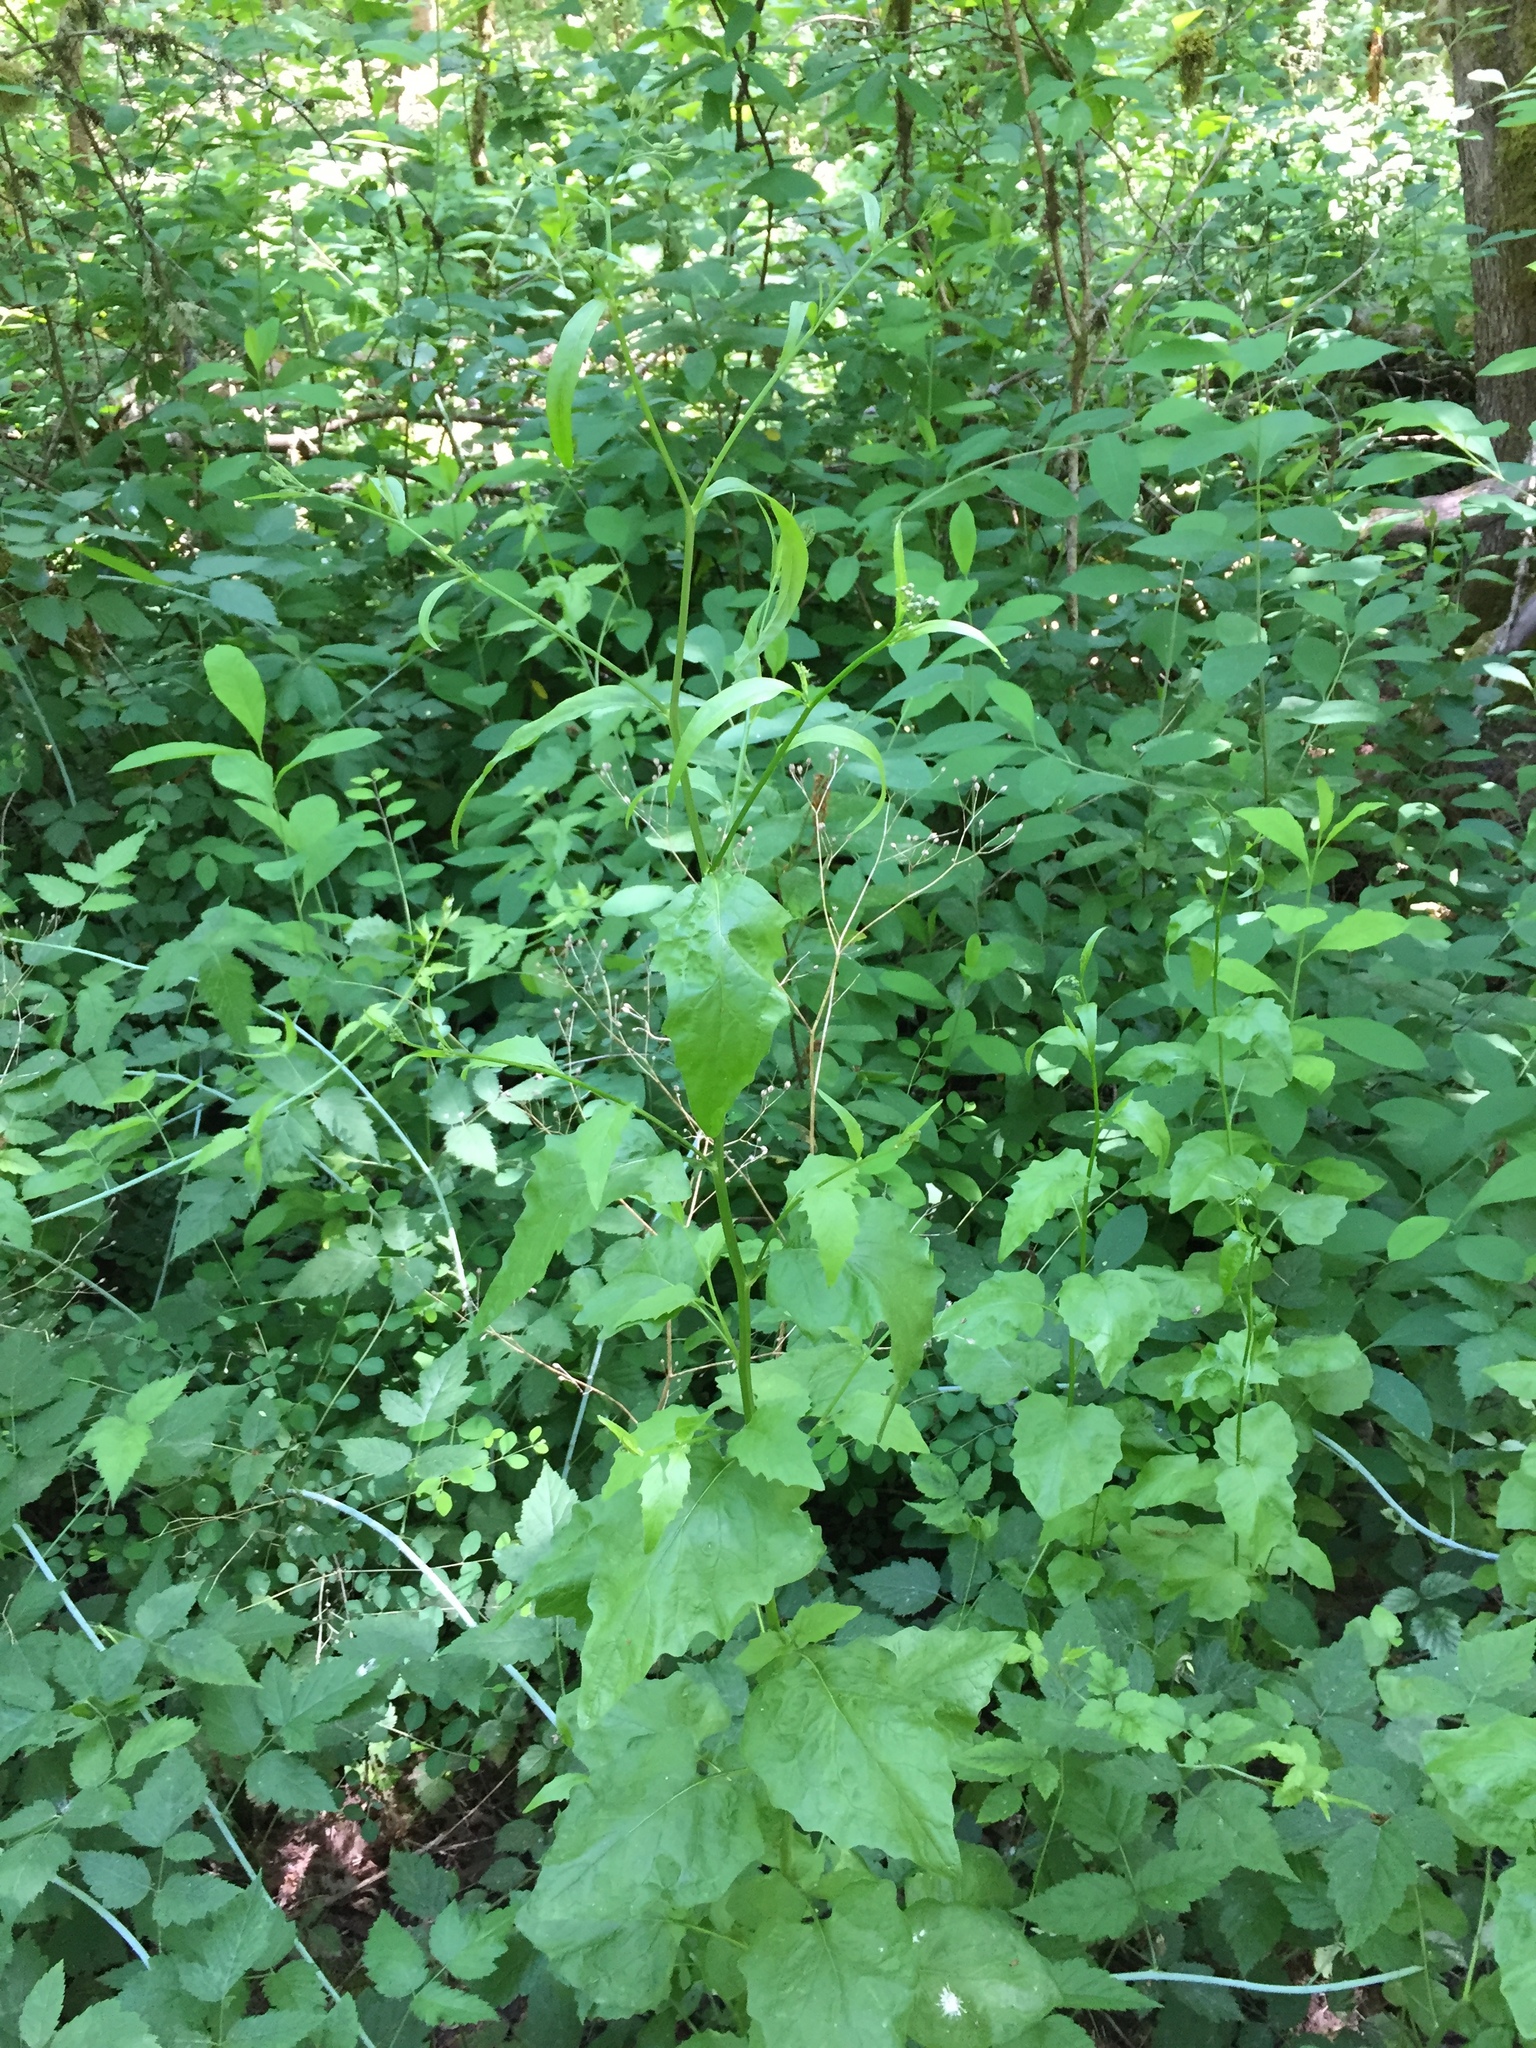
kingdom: Plantae
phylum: Tracheophyta
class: Magnoliopsida
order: Asterales
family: Asteraceae
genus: Lapsana
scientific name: Lapsana communis
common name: Nipplewort
